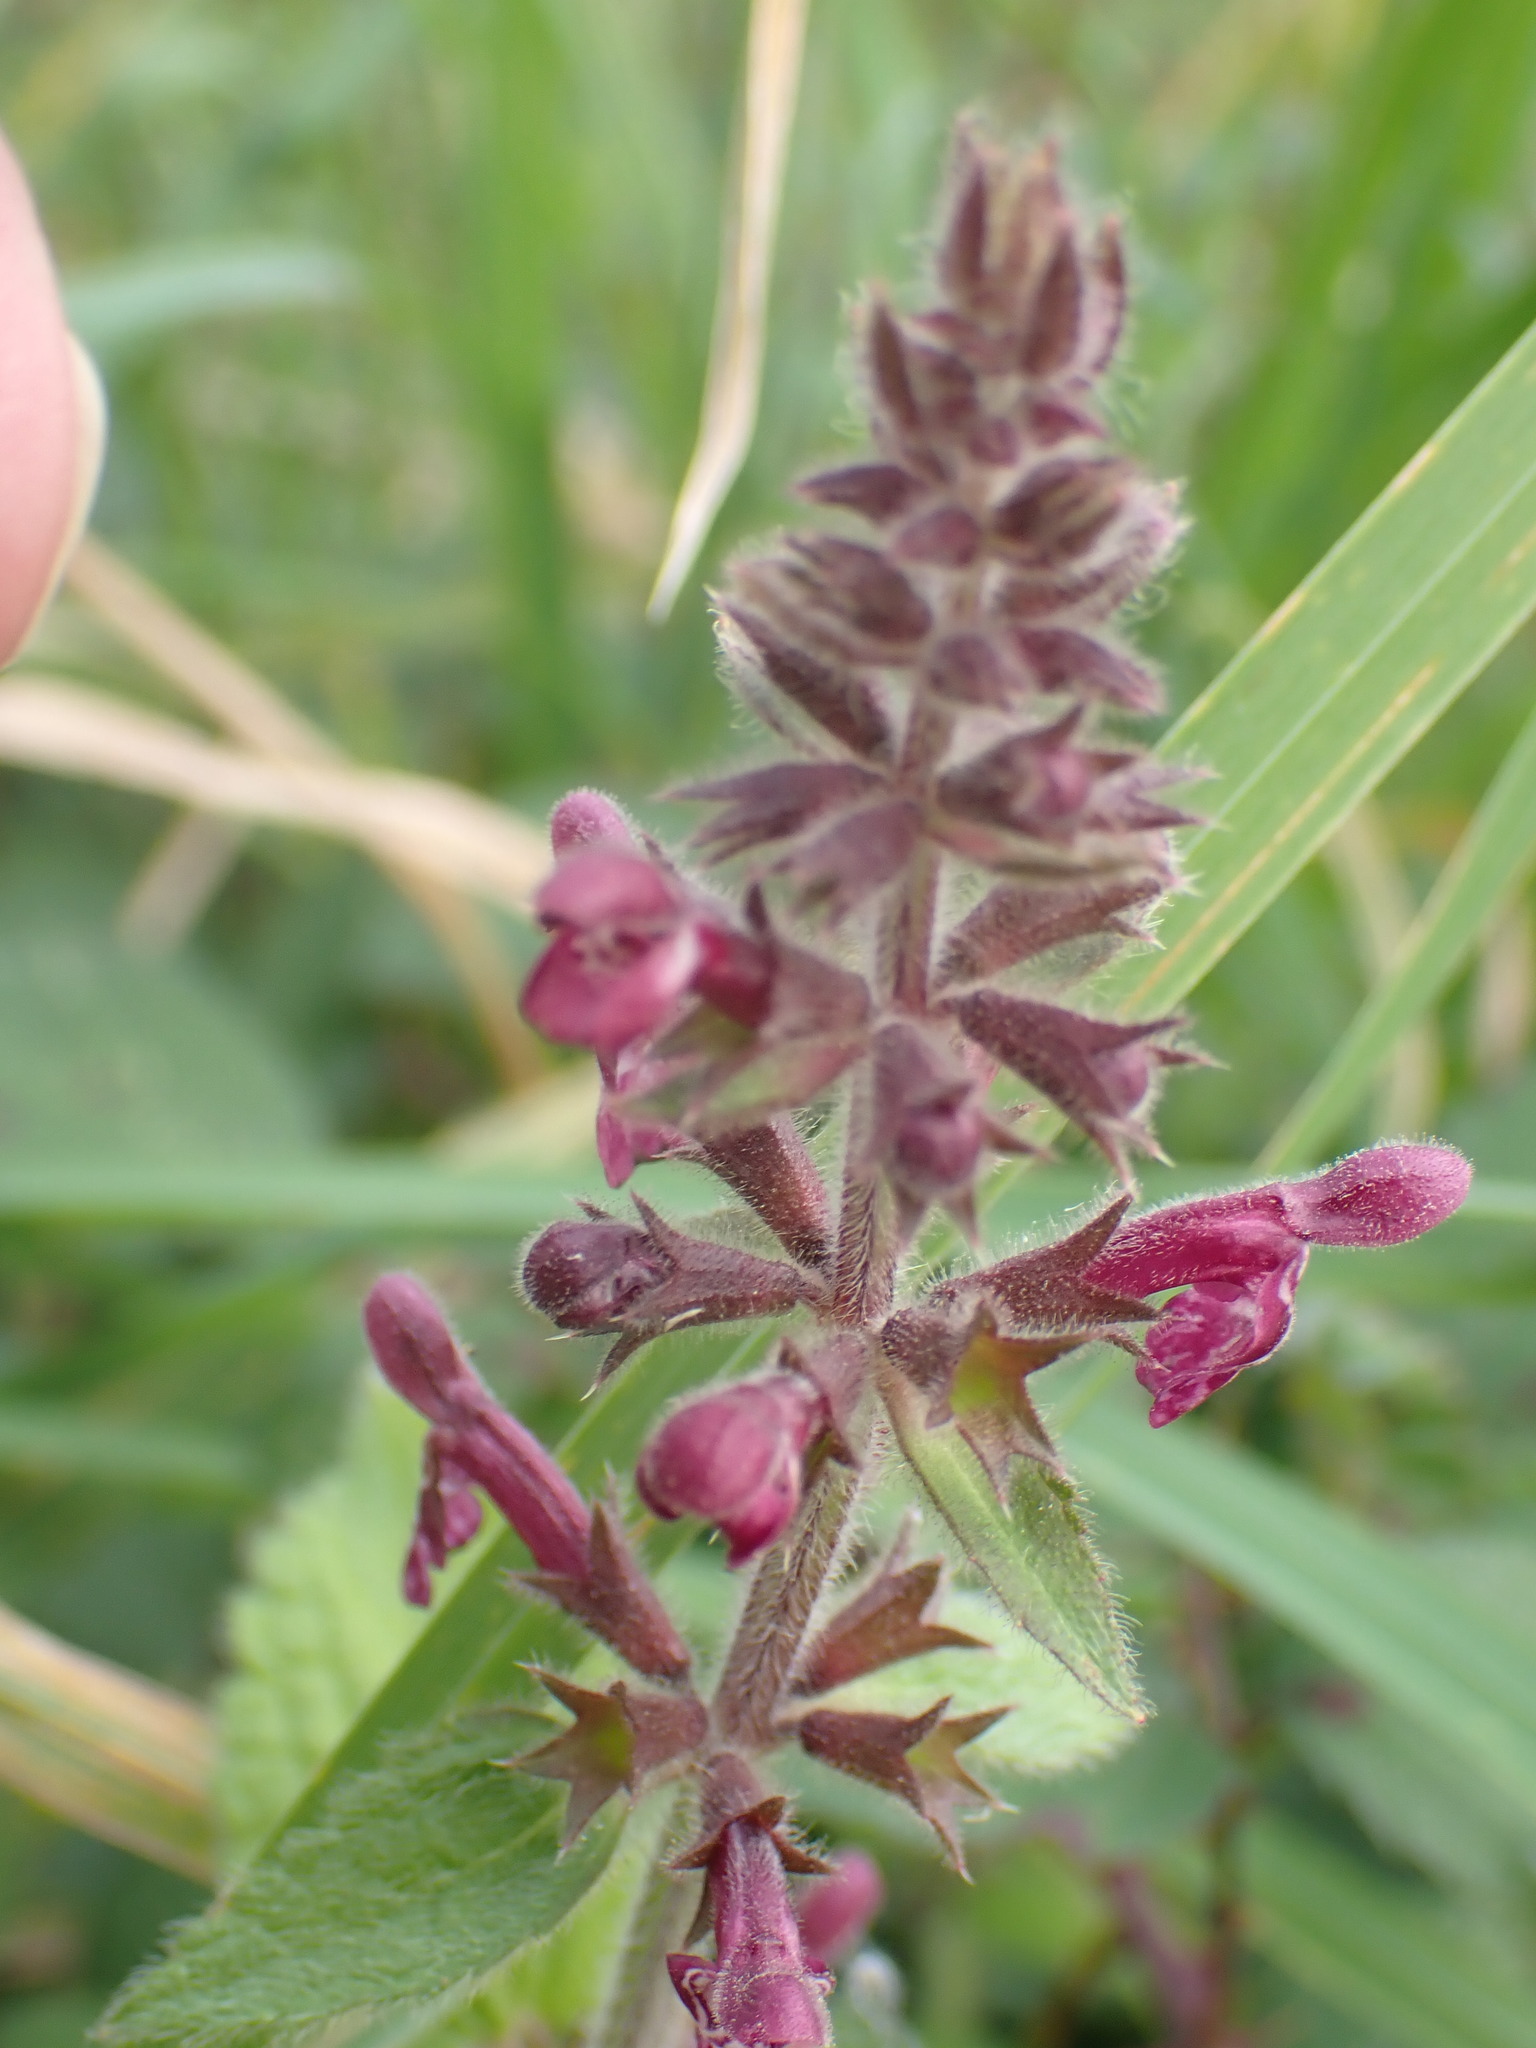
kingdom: Plantae
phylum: Tracheophyta
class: Magnoliopsida
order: Lamiales
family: Lamiaceae
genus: Stachys
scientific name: Stachys sylvatica
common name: Hedge woundwort
